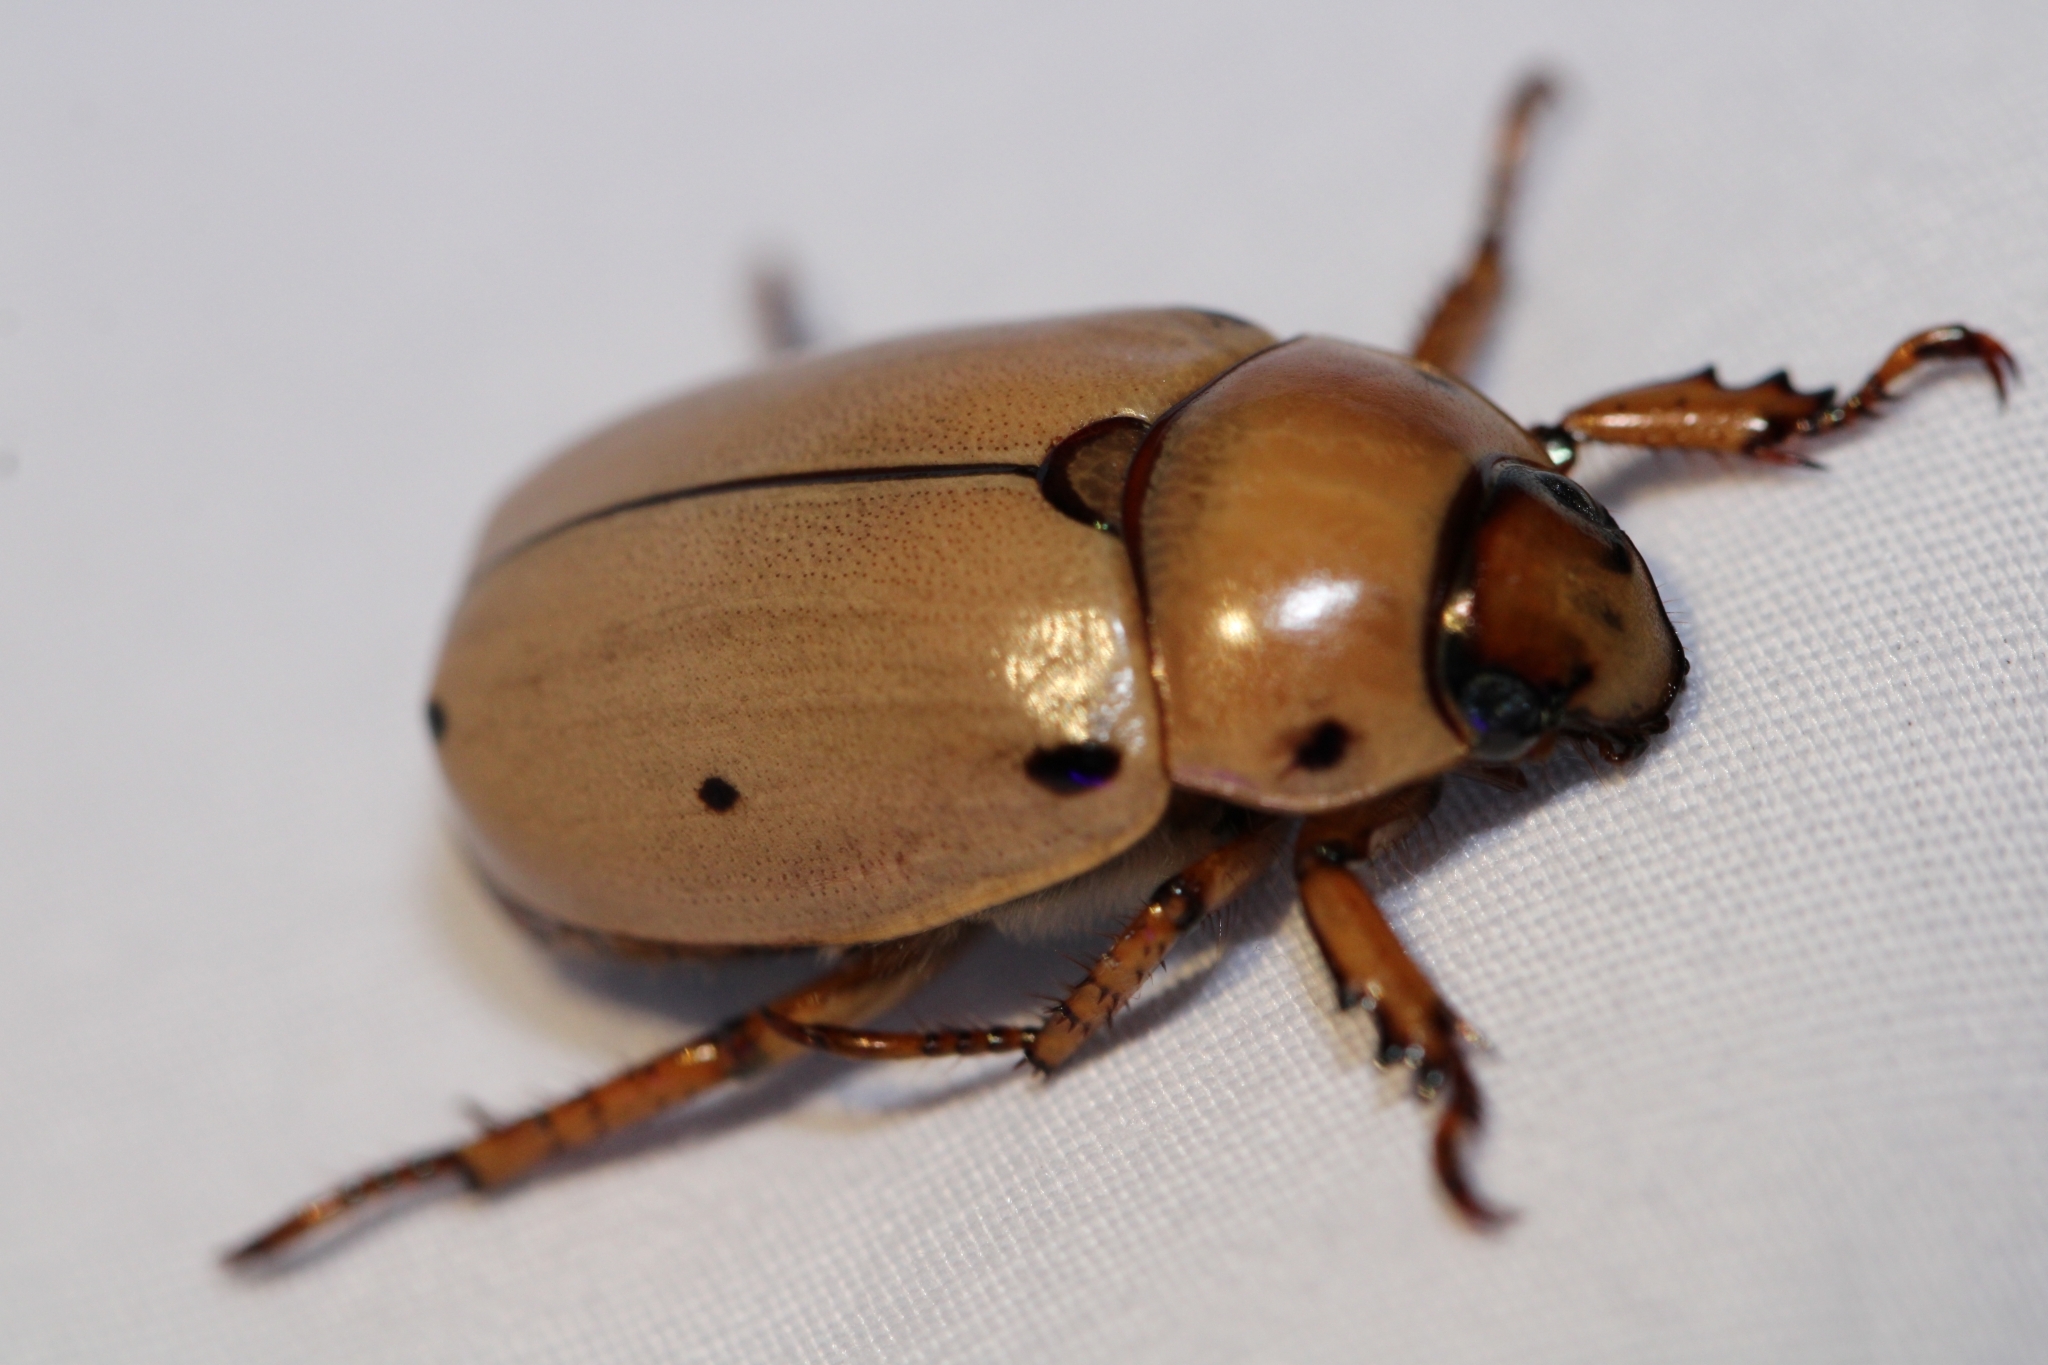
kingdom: Animalia
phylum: Arthropoda
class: Insecta
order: Coleoptera
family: Scarabaeidae
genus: Pelidnota
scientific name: Pelidnota punctata
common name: Grapevine beetle
